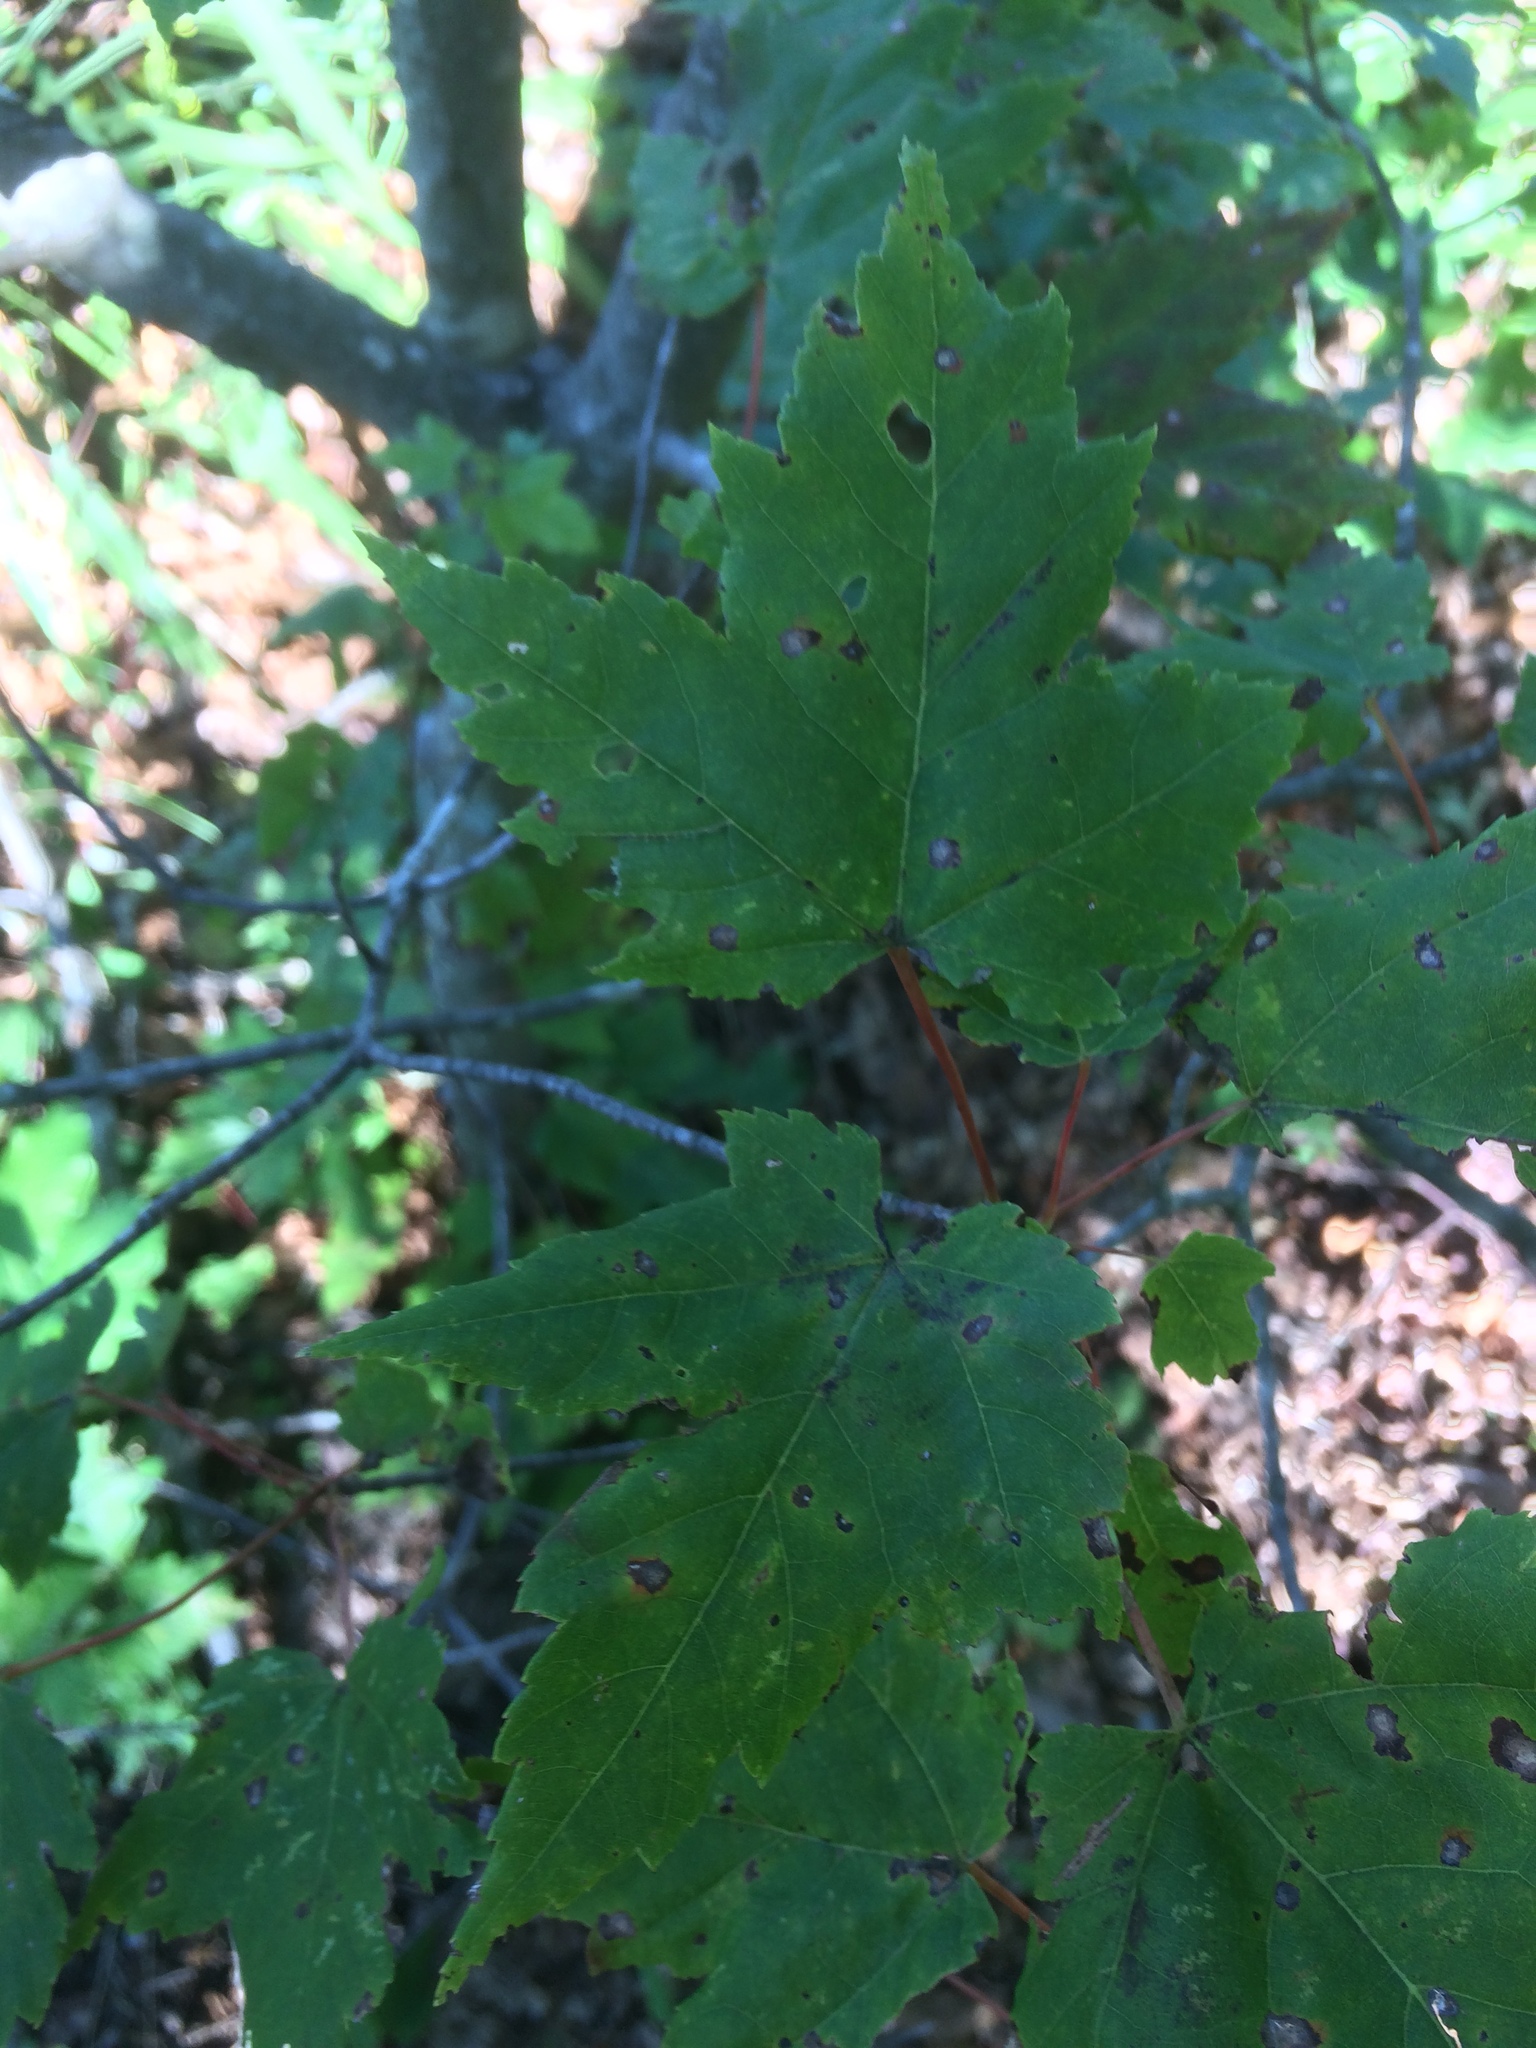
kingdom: Plantae
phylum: Tracheophyta
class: Magnoliopsida
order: Sapindales
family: Sapindaceae
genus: Acer
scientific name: Acer rubrum
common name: Red maple
